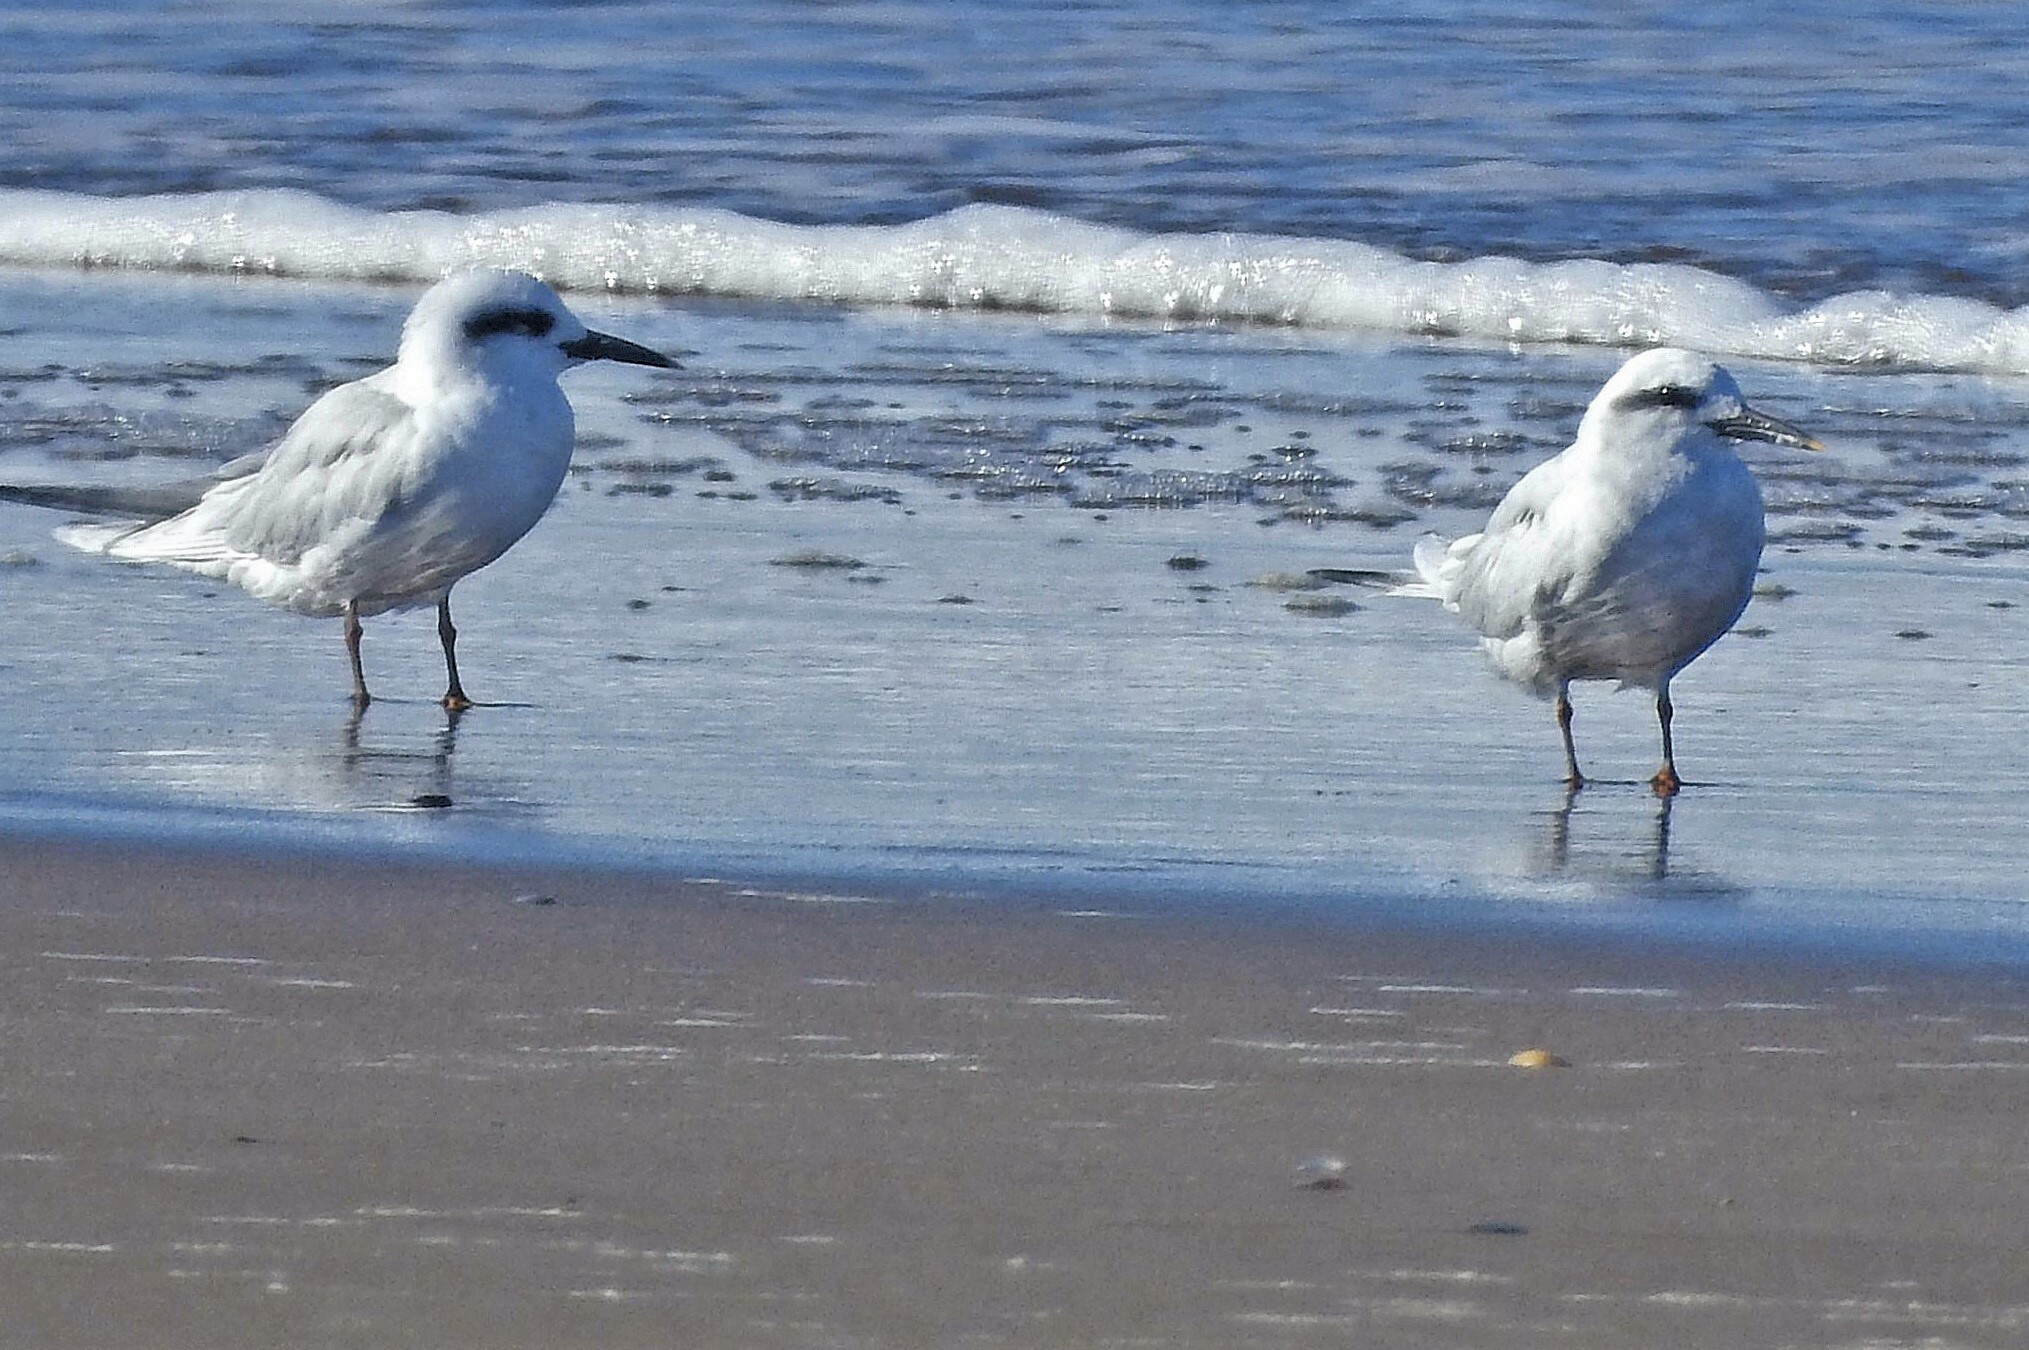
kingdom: Animalia
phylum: Chordata
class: Aves
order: Charadriiformes
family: Laridae
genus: Sterna
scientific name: Sterna trudeaui
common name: Snowy-crowned tern
